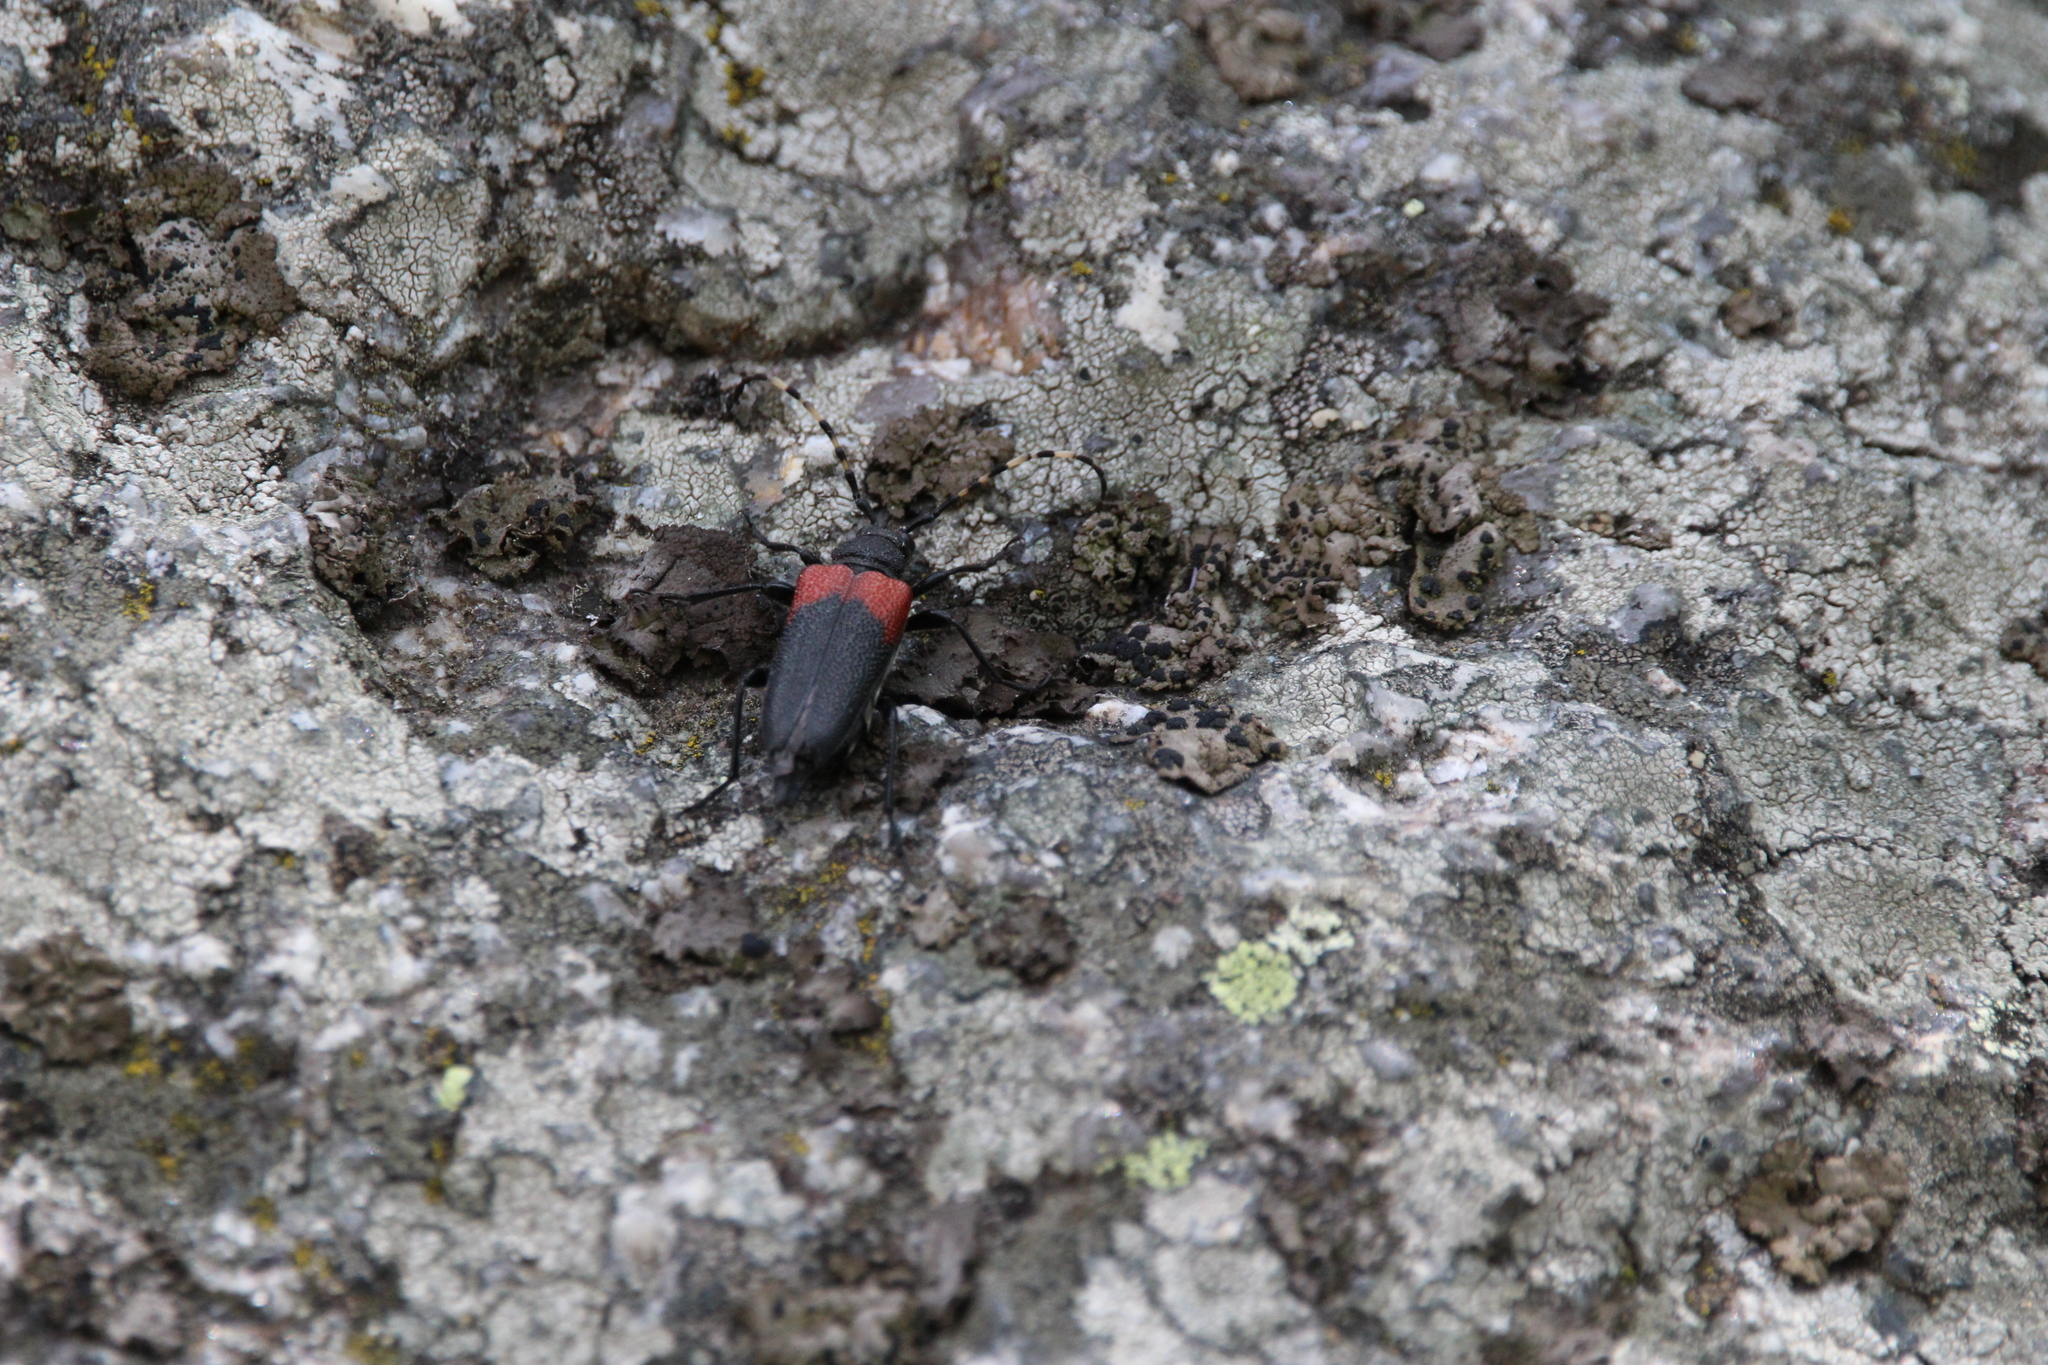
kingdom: Animalia
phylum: Arthropoda
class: Insecta
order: Coleoptera
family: Cerambycidae
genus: Stictoleptura
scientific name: Stictoleptura canadensis
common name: Red-shouldered pine borer
